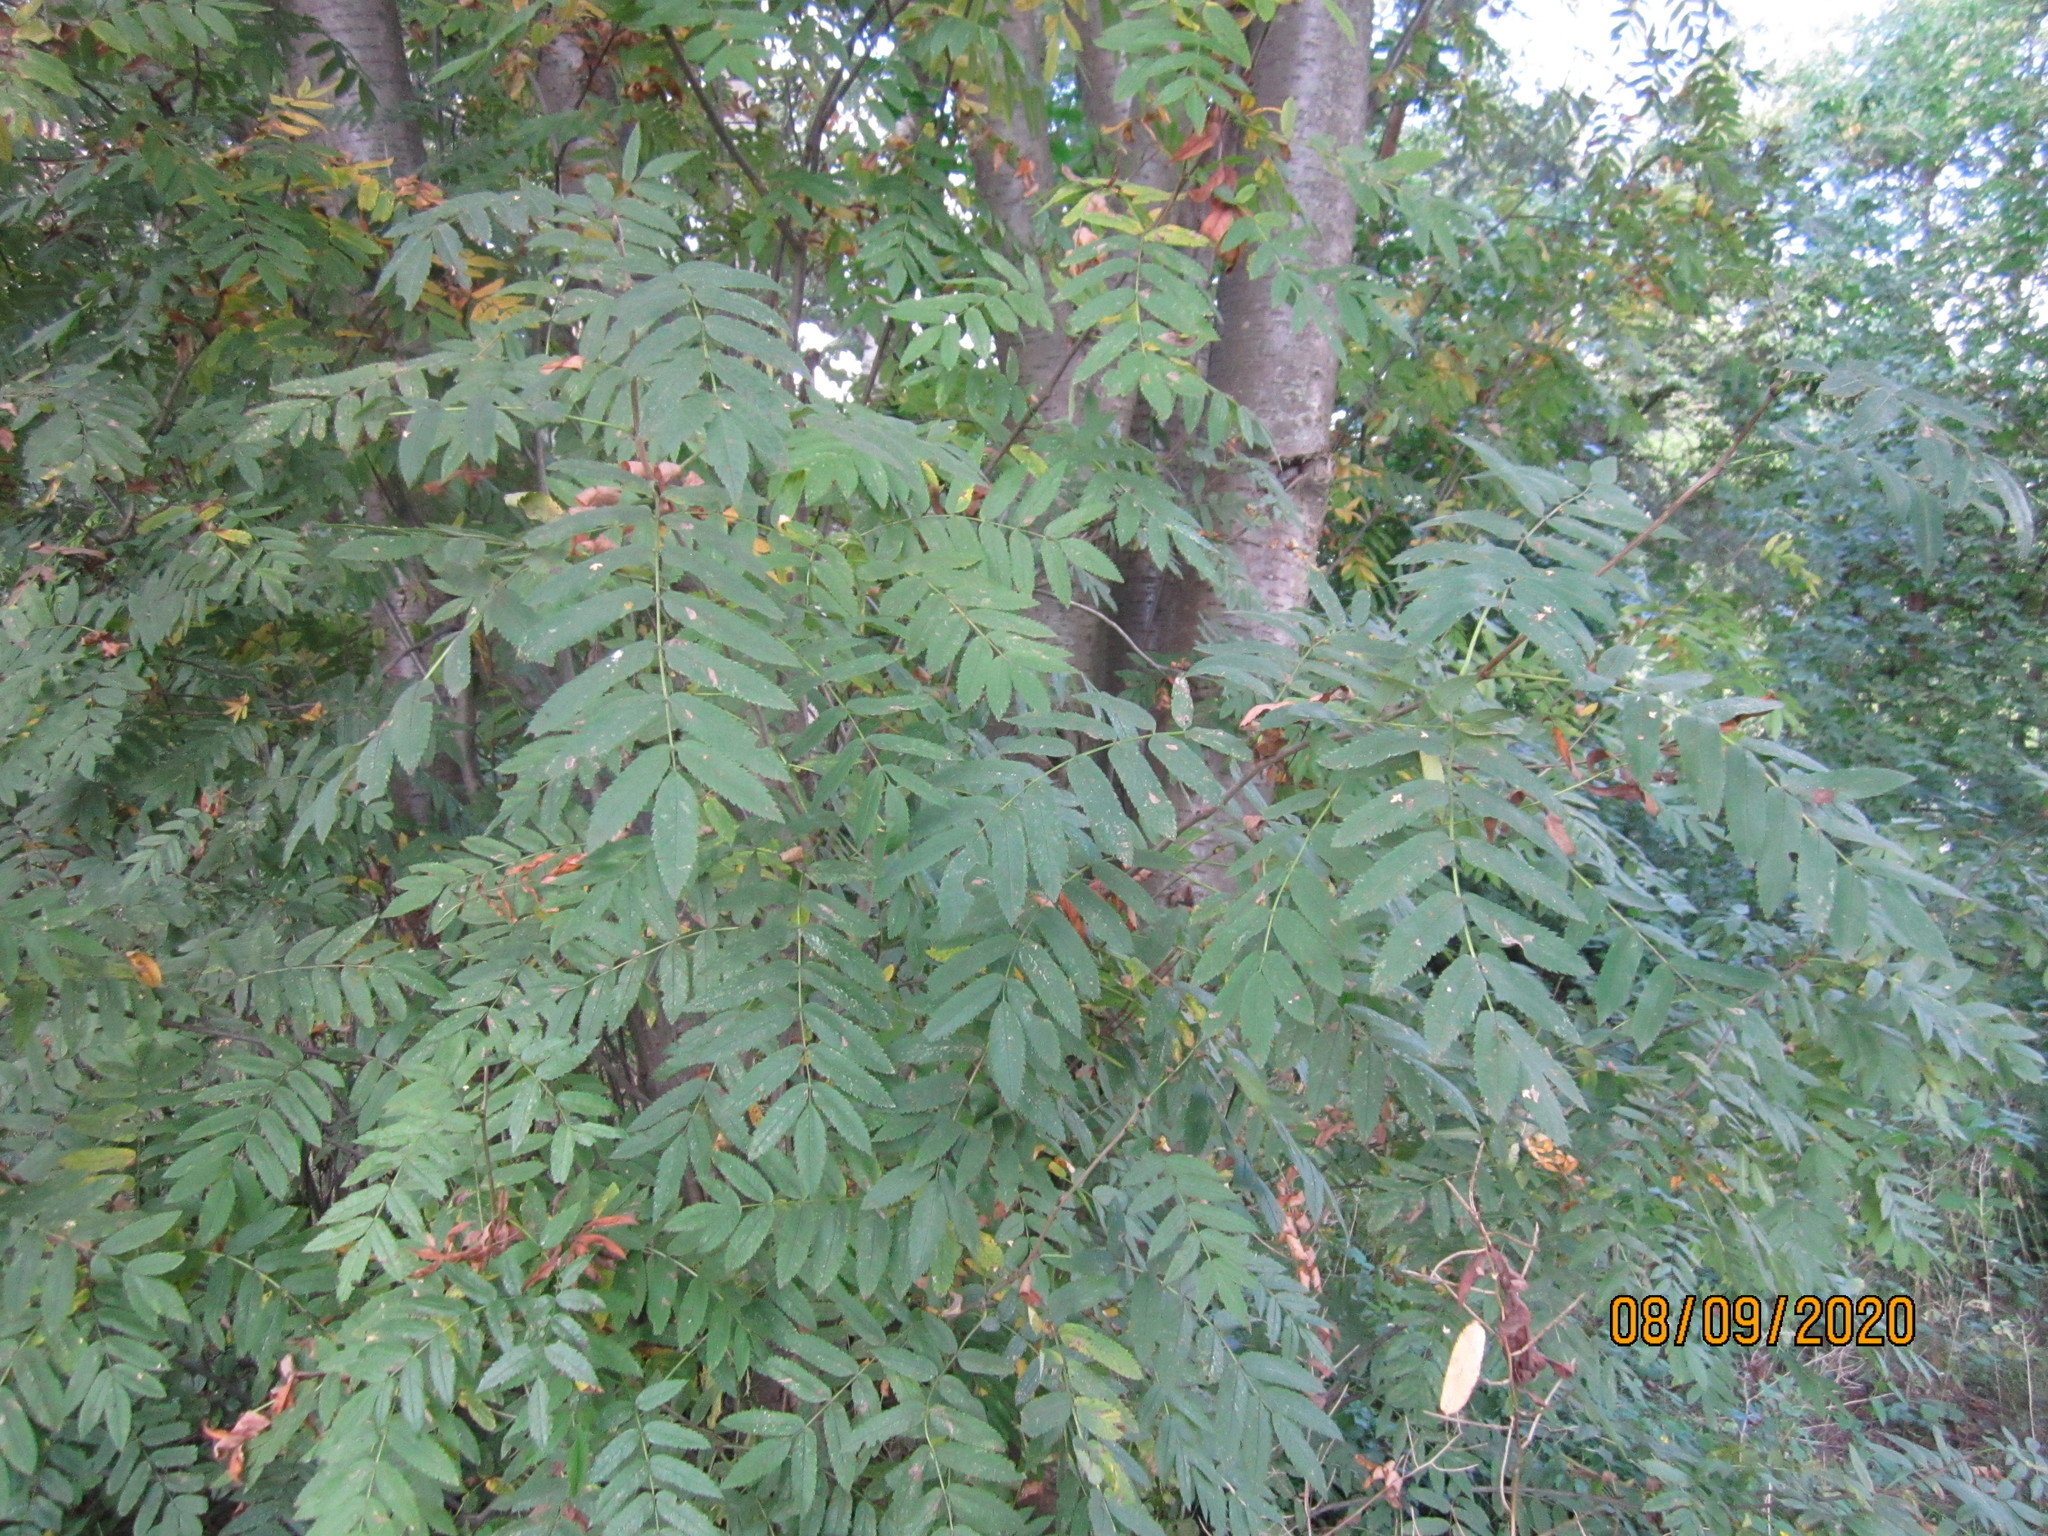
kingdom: Plantae
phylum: Tracheophyta
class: Magnoliopsida
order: Rosales
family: Rosaceae
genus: Sorbus
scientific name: Sorbus aucuparia
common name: Rowan
